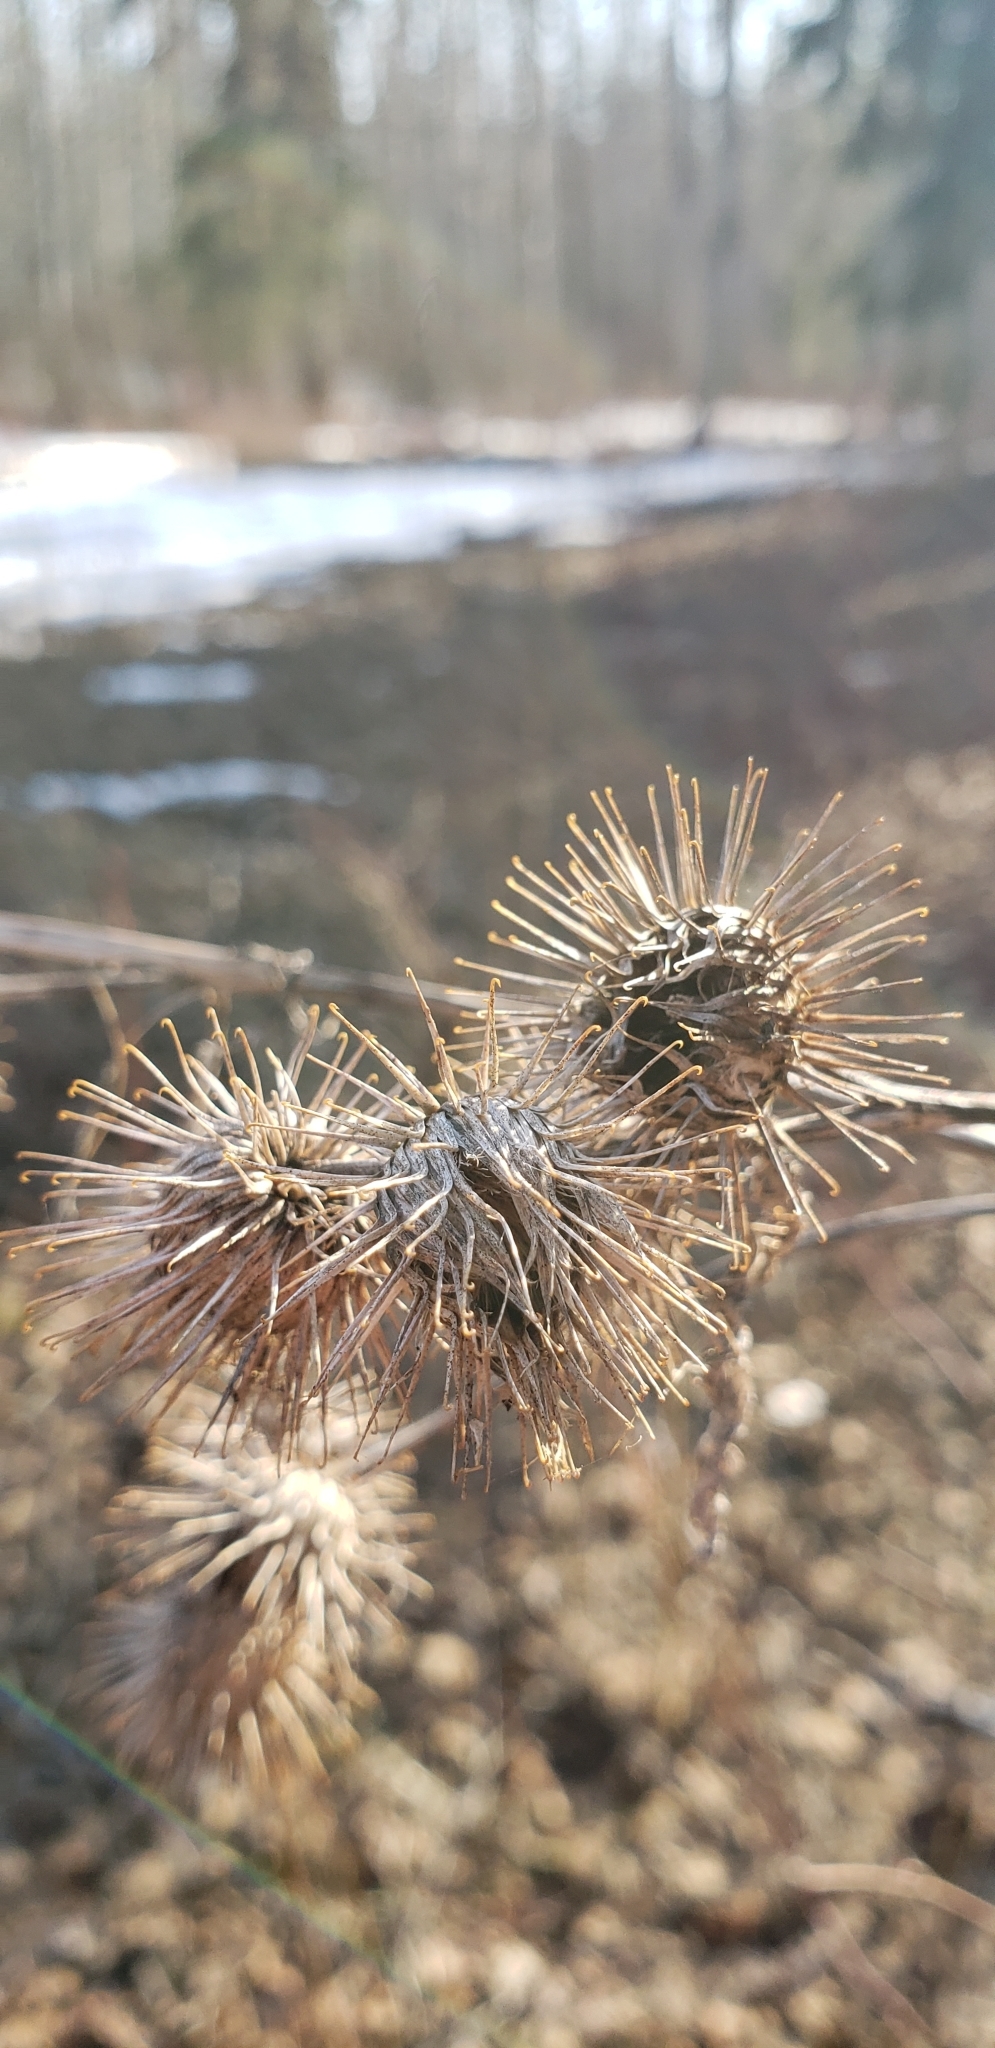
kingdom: Plantae
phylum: Tracheophyta
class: Magnoliopsida
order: Asterales
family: Asteraceae
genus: Arctium
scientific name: Arctium lappa
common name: Greater burdock
